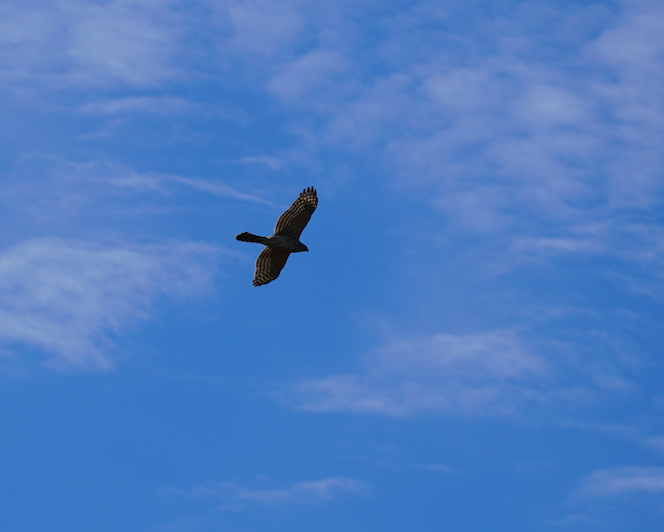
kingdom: Animalia
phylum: Chordata
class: Aves
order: Accipitriformes
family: Accipitridae
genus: Accipiter
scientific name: Accipiter cooperii
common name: Cooper's hawk
